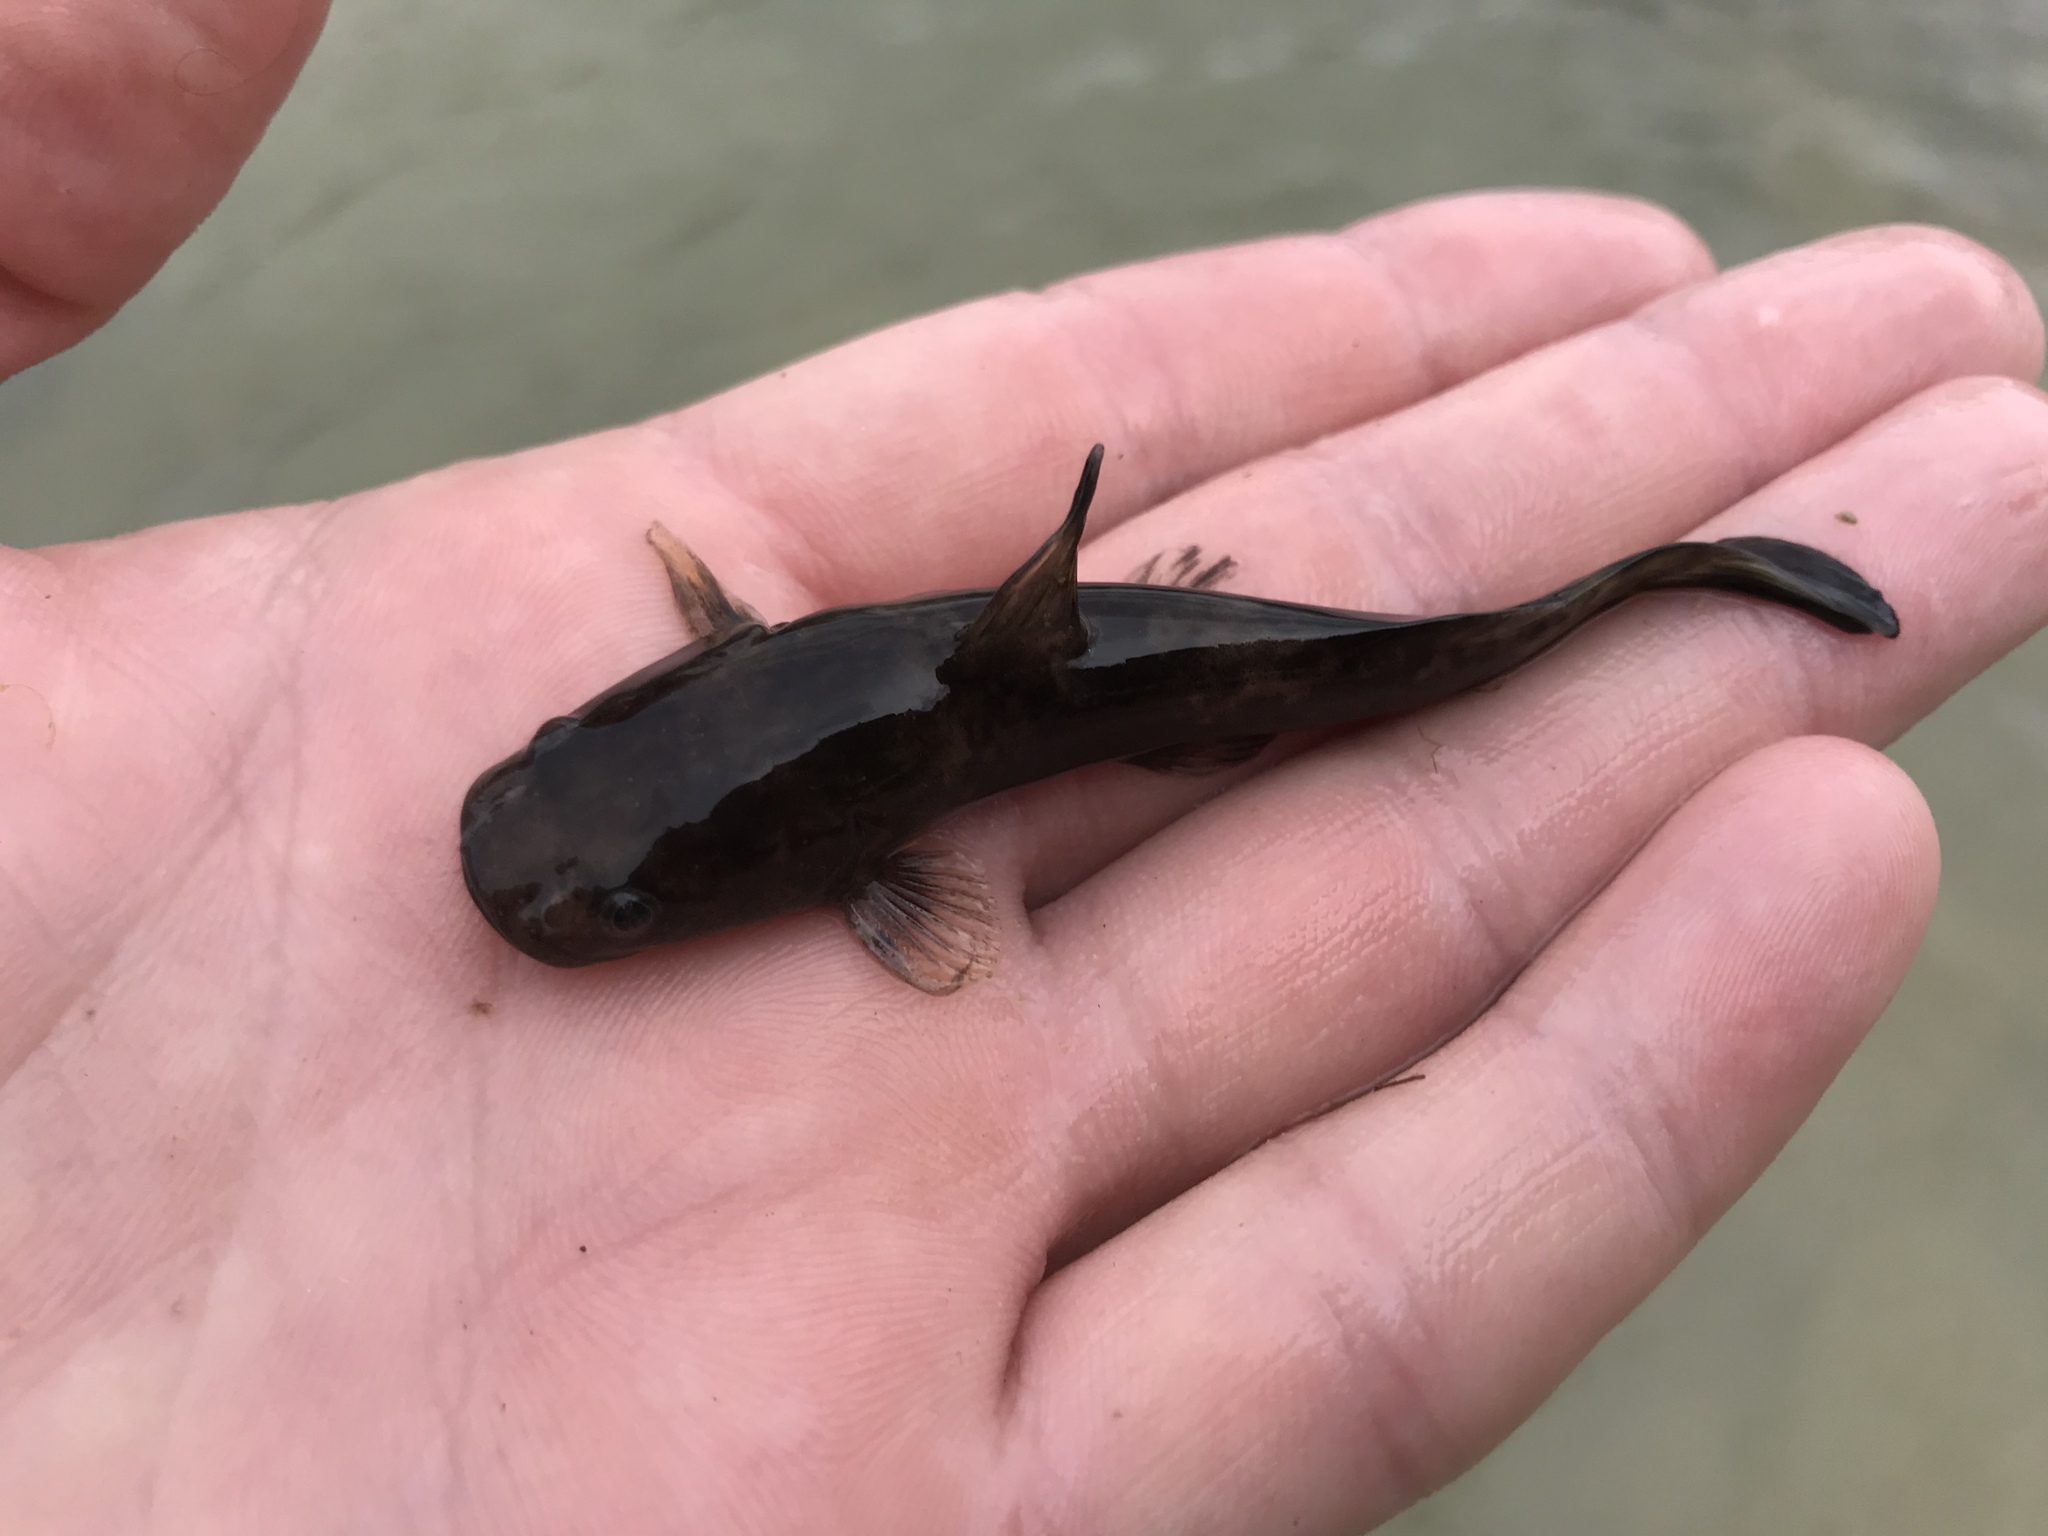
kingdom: Animalia
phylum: Chordata
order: Siluriformes
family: Ictaluridae
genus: Pylodictis
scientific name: Pylodictis olivaris
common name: Flathead catfish
